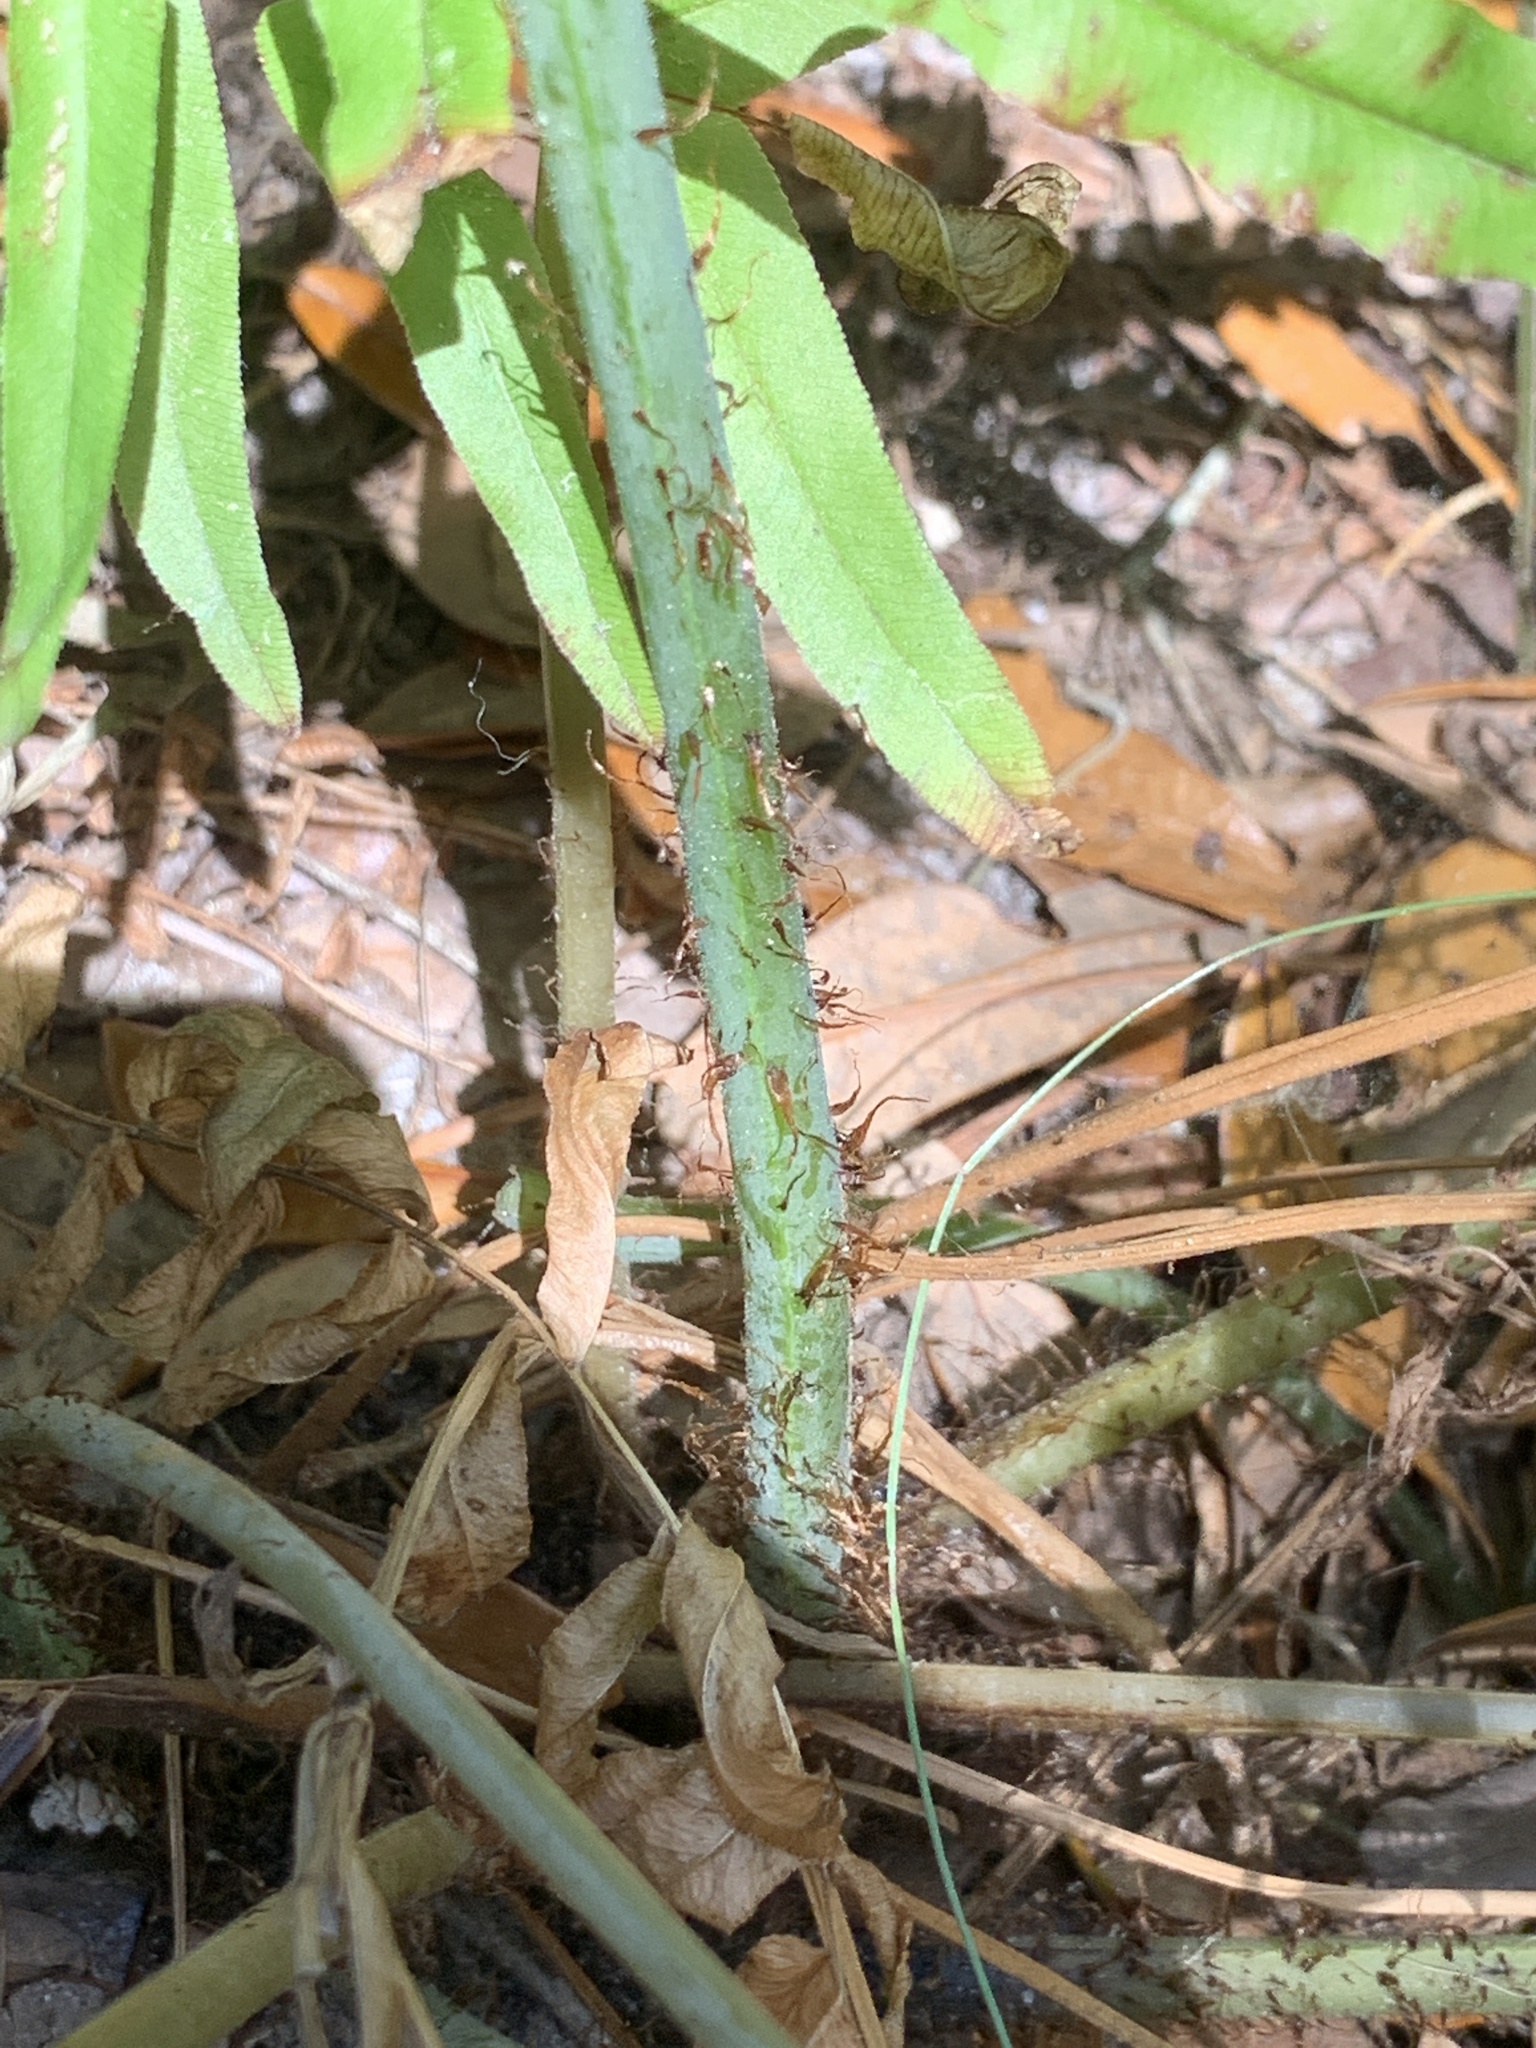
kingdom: Plantae
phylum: Tracheophyta
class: Polypodiopsida
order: Polypodiales
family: Thelypteridaceae
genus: Macrothelypteris
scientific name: Macrothelypteris torresiana
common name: Swordfern
